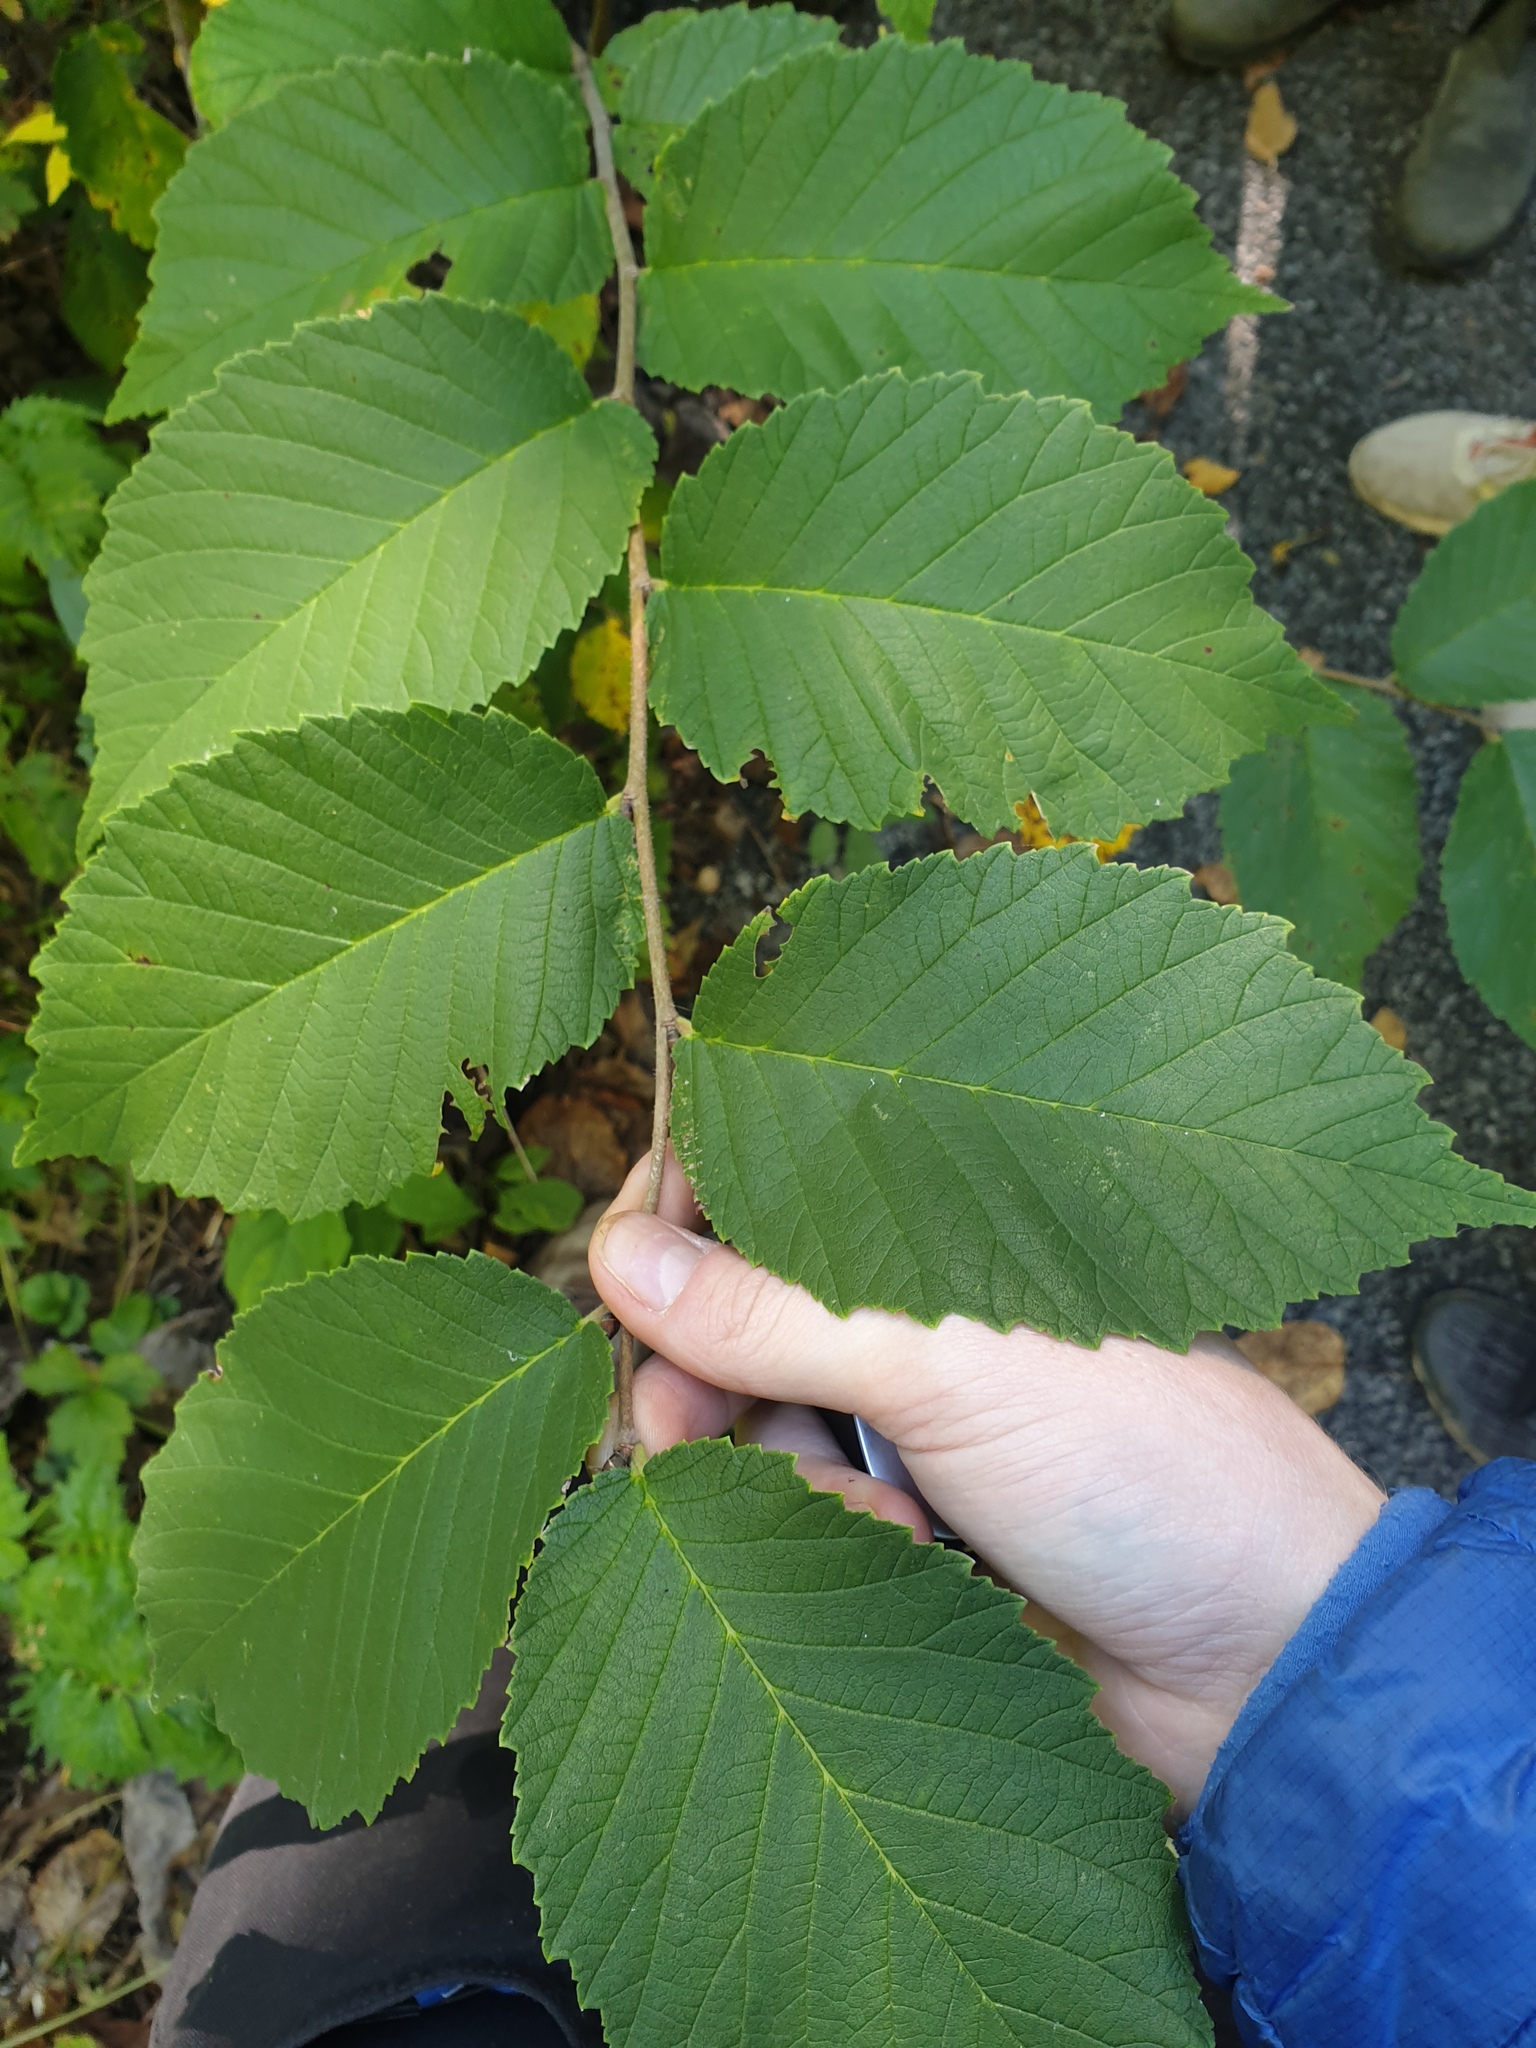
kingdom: Plantae
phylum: Tracheophyta
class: Magnoliopsida
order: Rosales
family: Ulmaceae
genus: Ulmus
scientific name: Ulmus rubra
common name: Slippery elm
